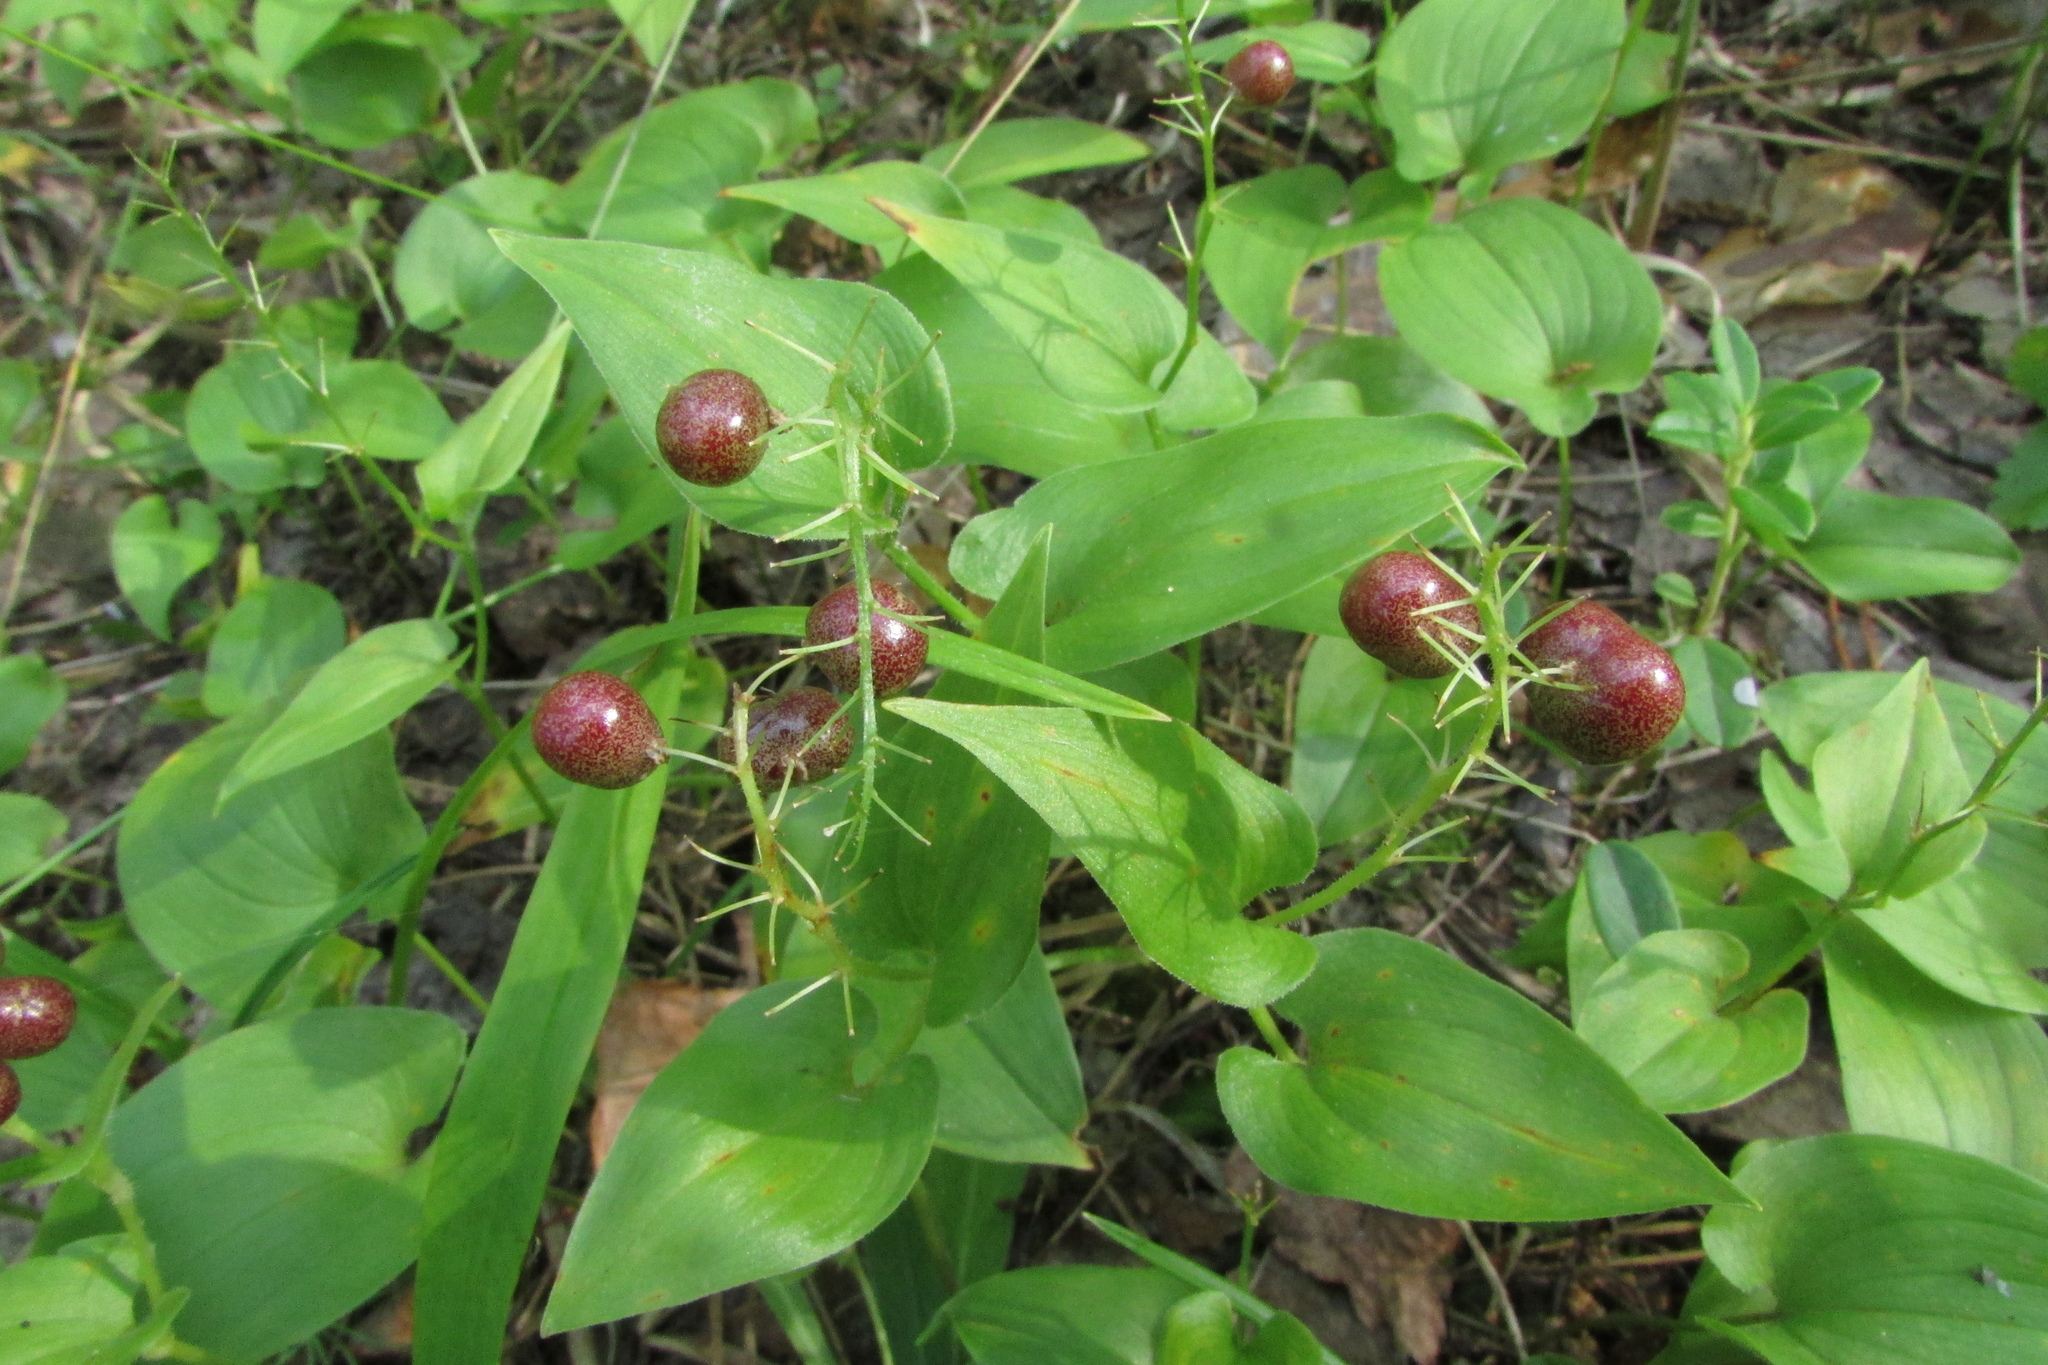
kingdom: Plantae
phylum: Tracheophyta
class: Liliopsida
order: Asparagales
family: Asparagaceae
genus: Maianthemum
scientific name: Maianthemum bifolium
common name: May lily
